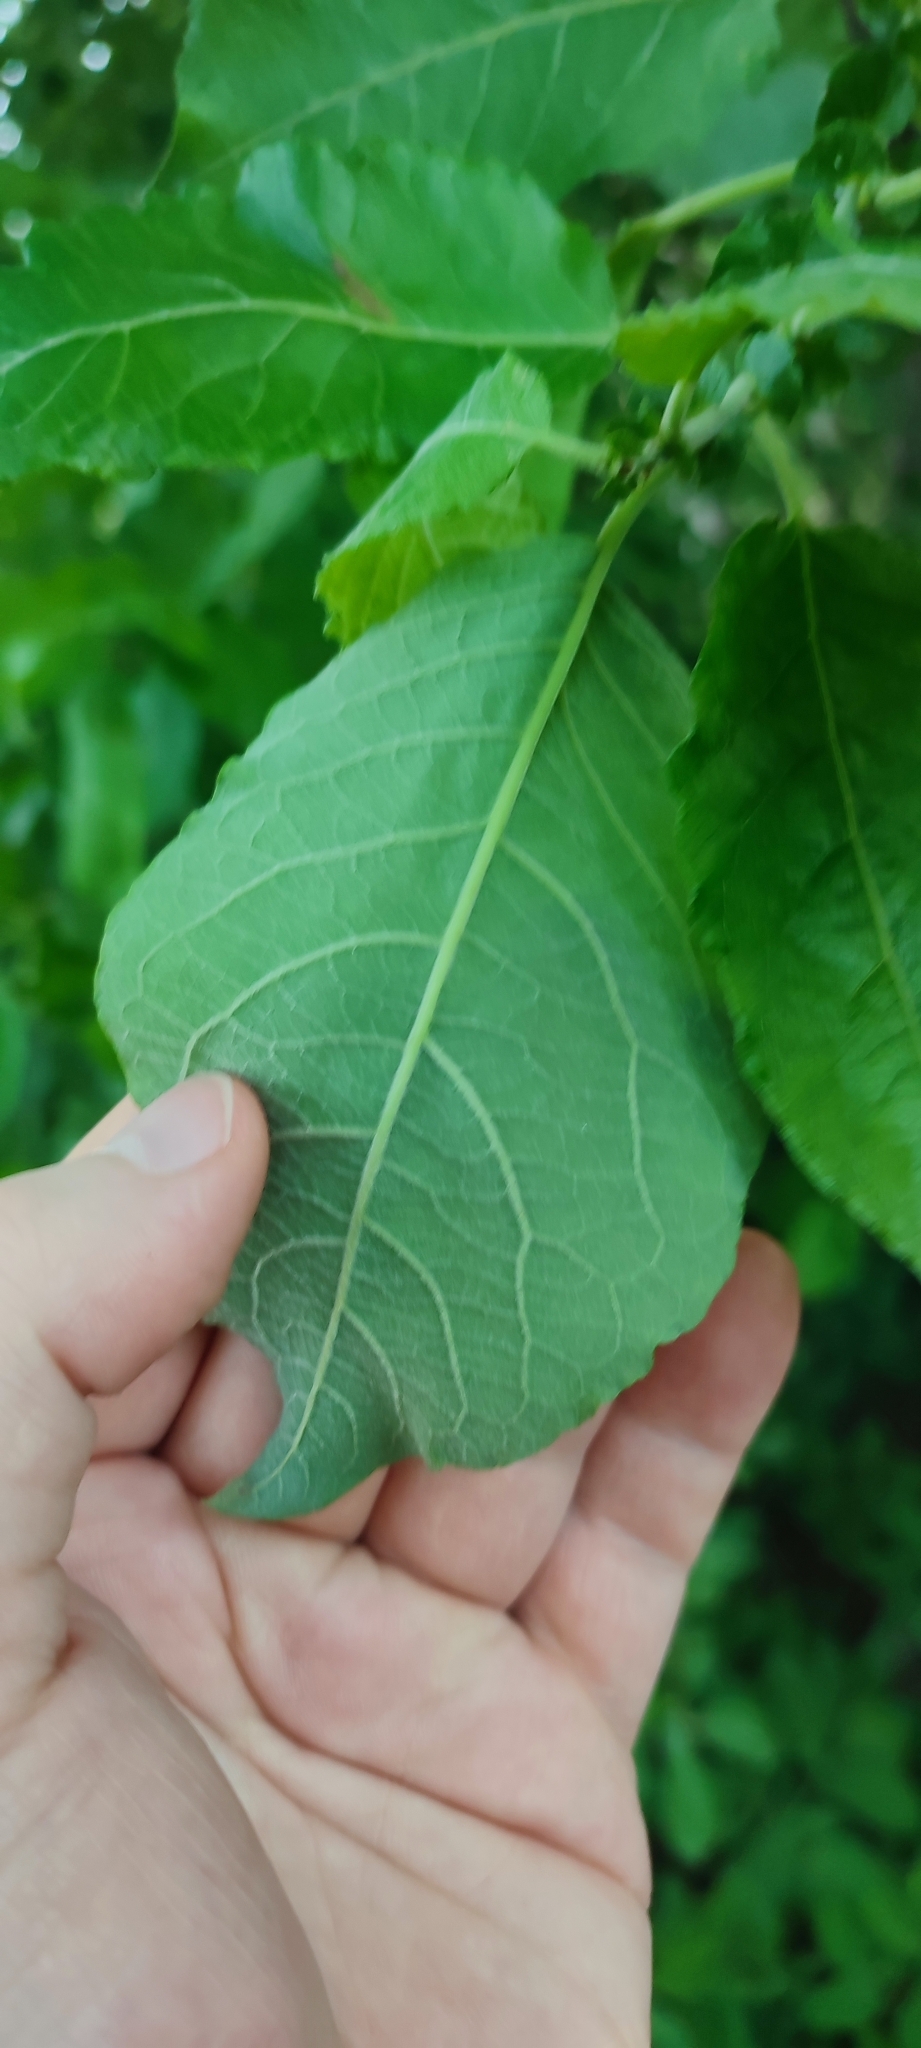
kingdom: Plantae
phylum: Tracheophyta
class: Magnoliopsida
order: Malpighiales
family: Salicaceae
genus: Salix
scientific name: Salix caprea
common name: Goat willow
